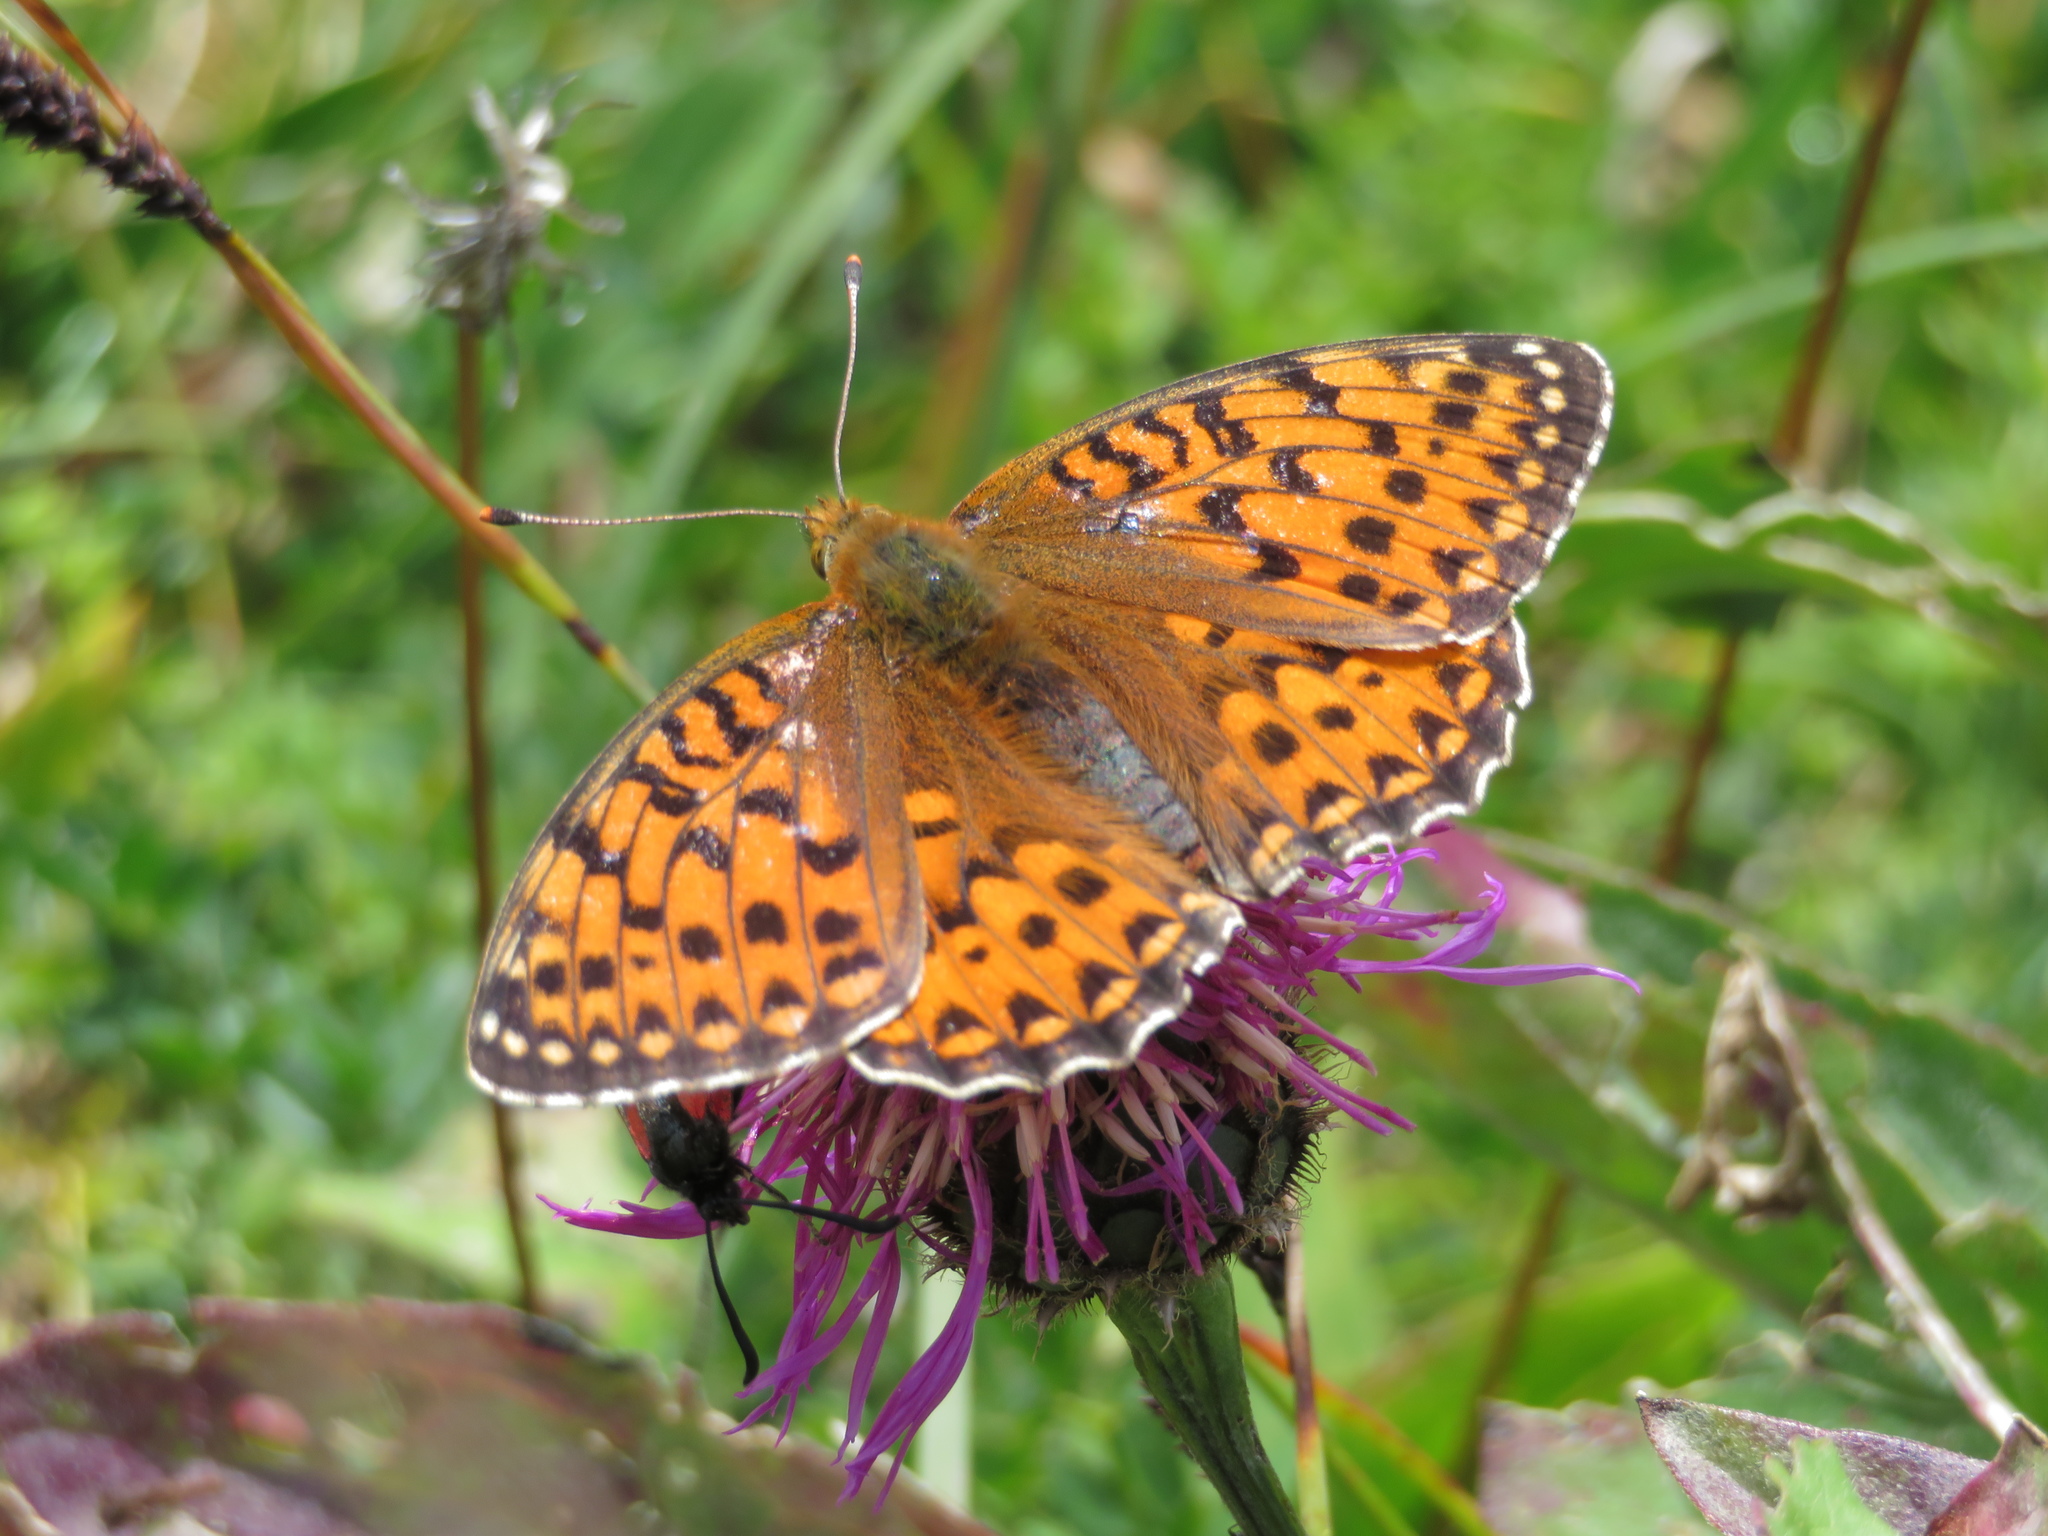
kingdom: Animalia
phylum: Arthropoda
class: Insecta
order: Lepidoptera
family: Nymphalidae
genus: Speyeria
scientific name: Speyeria aglaja
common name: Dark green fritillary
